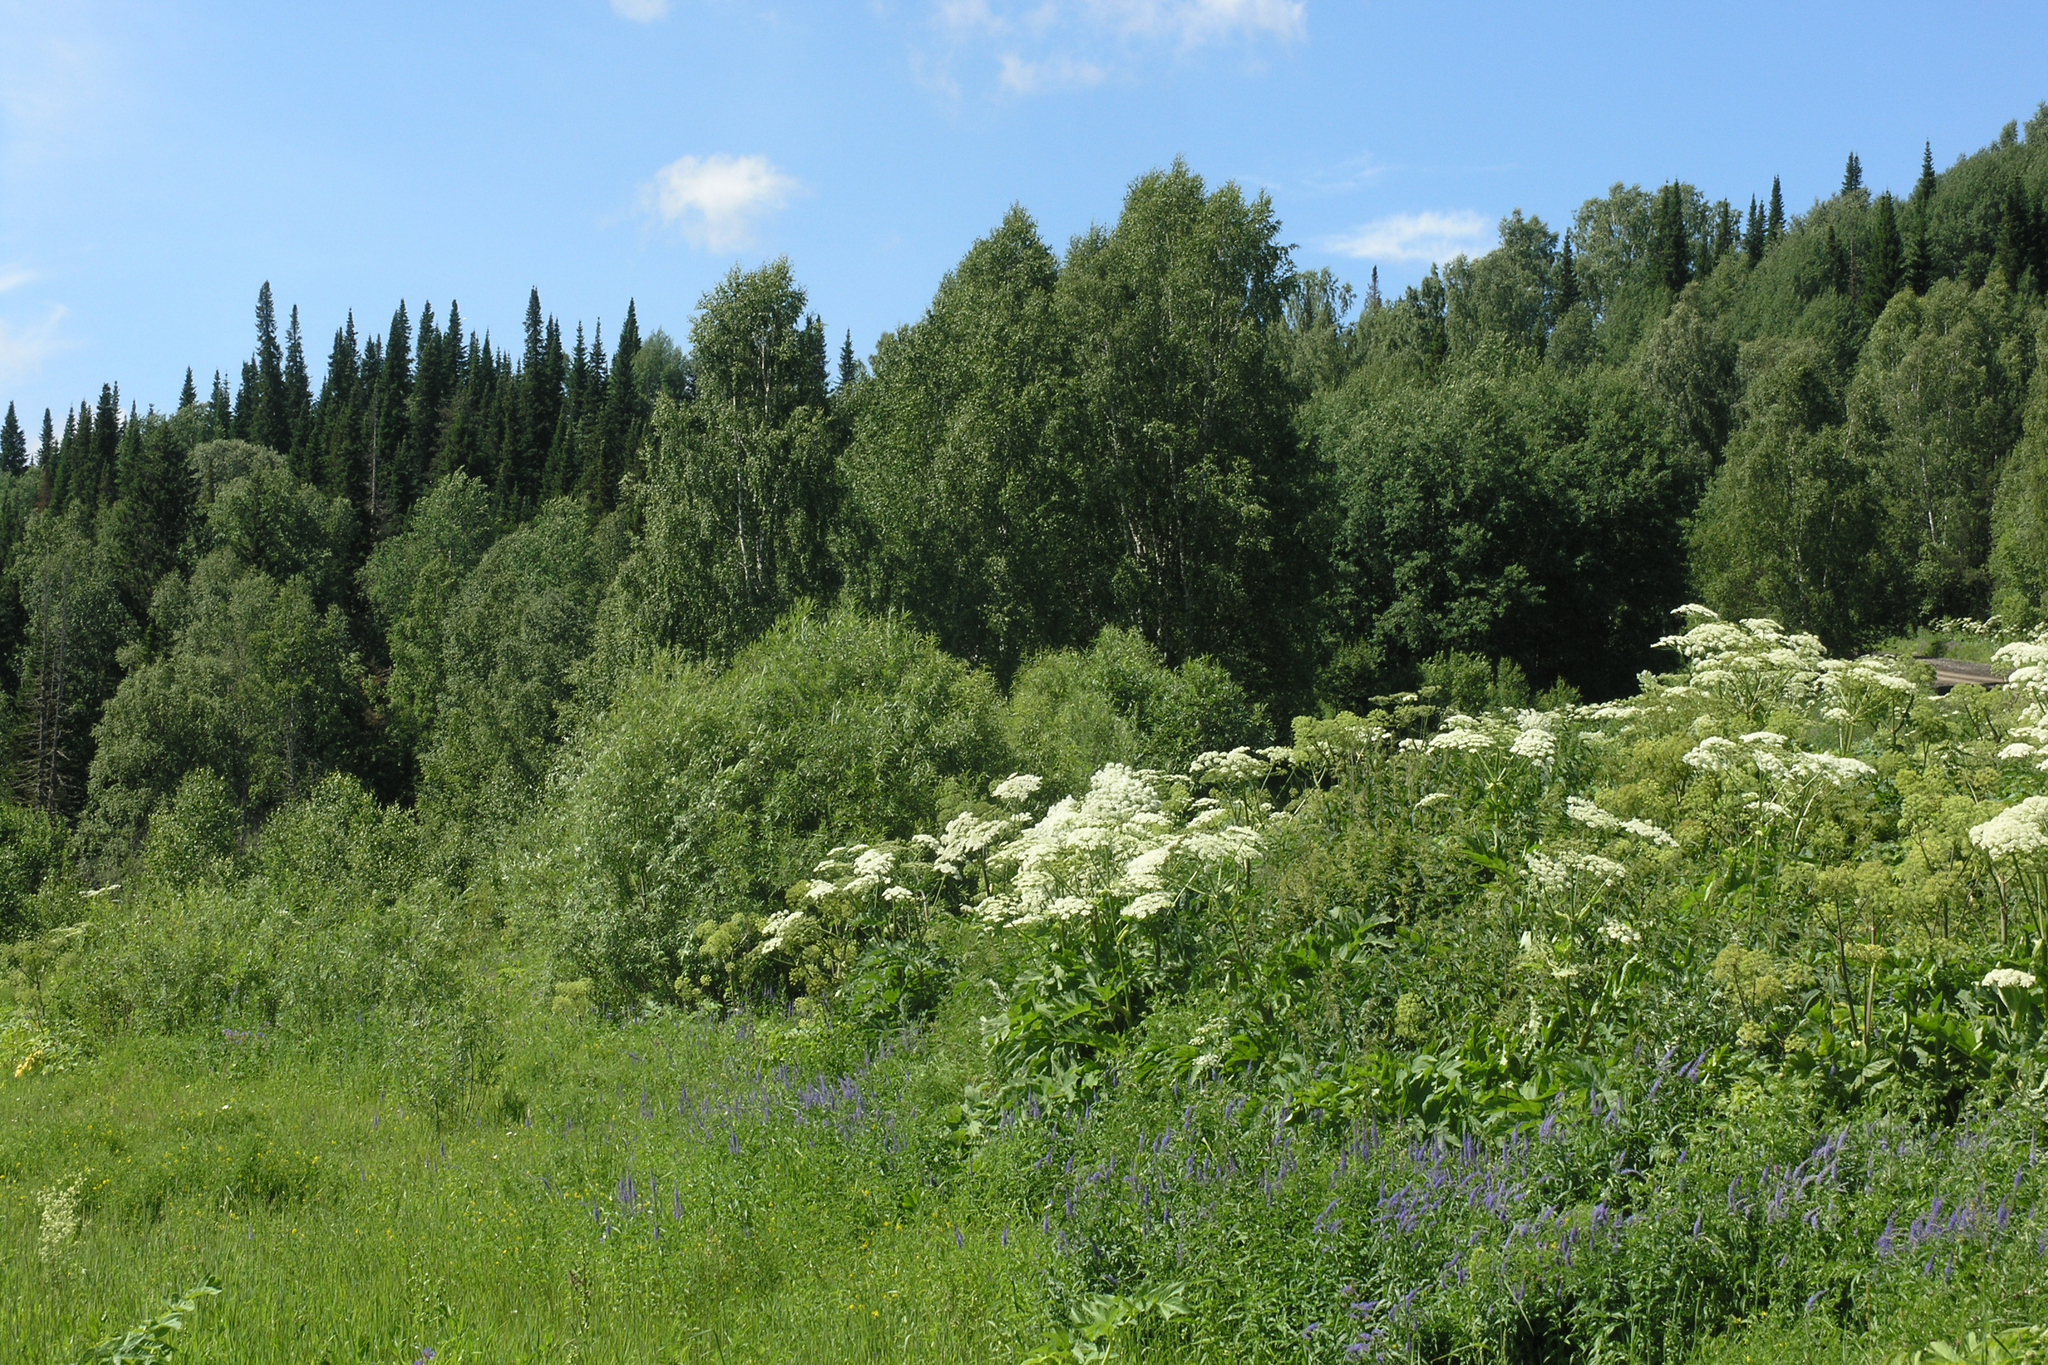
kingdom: Plantae
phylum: Tracheophyta
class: Magnoliopsida
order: Apiales
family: Apiaceae
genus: Heracleum
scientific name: Heracleum dissectum
